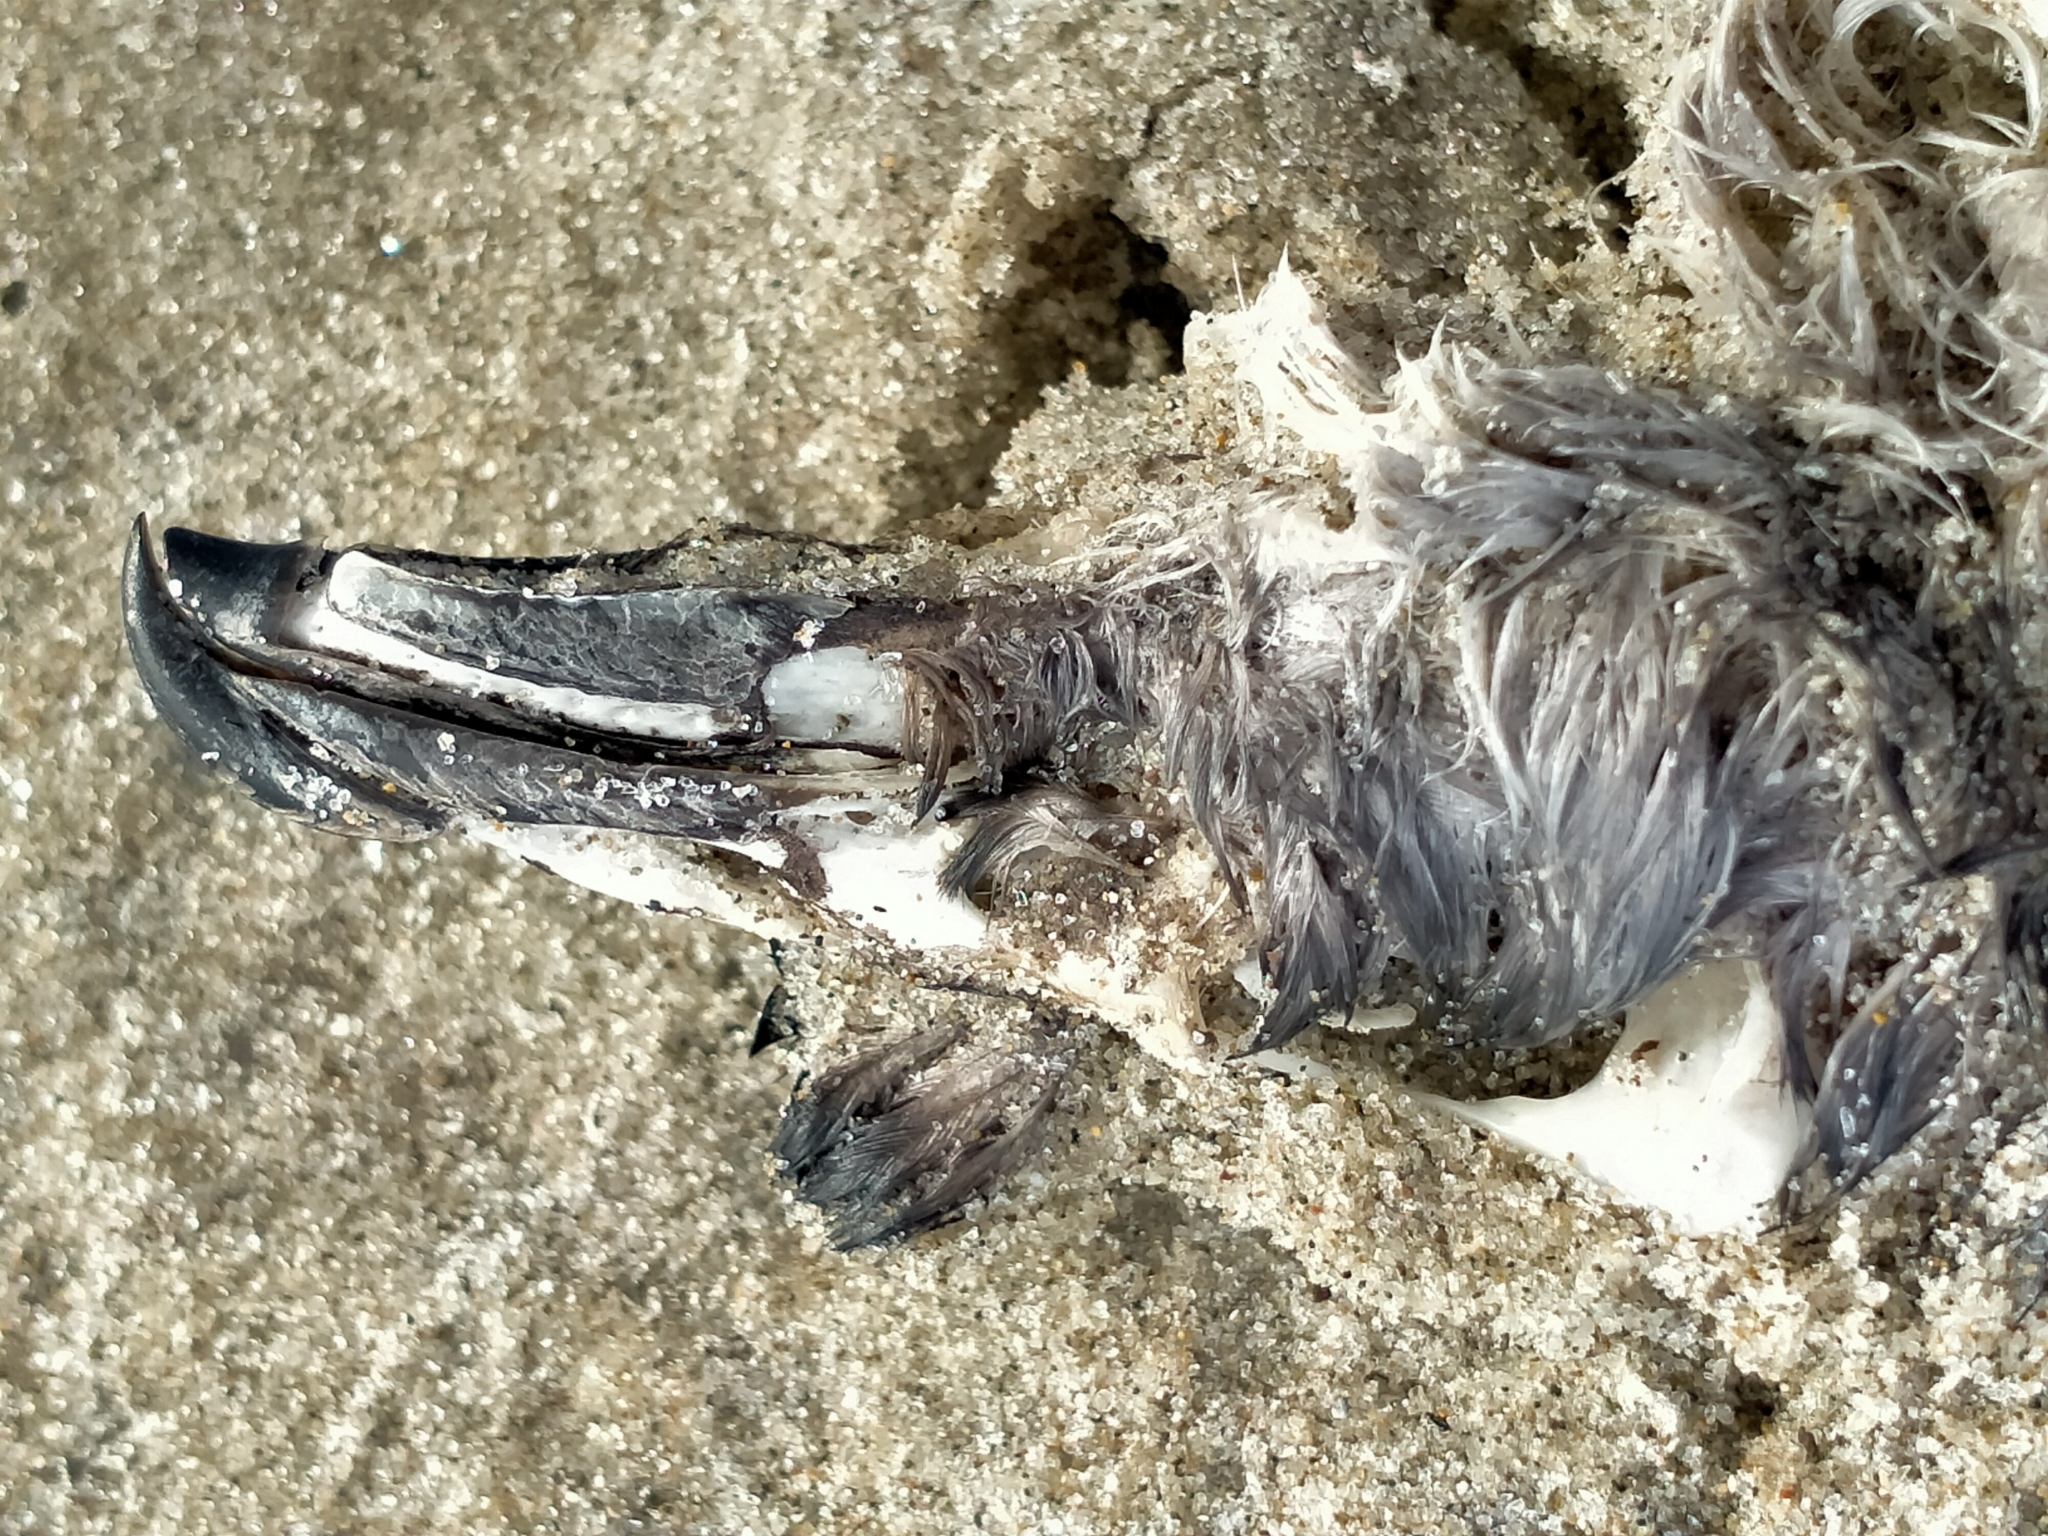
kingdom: Animalia
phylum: Chordata
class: Aves
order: Procellariiformes
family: Pelecanoididae
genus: Pelecanoides
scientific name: Pelecanoides urinatrix
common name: Common diving-petrel
